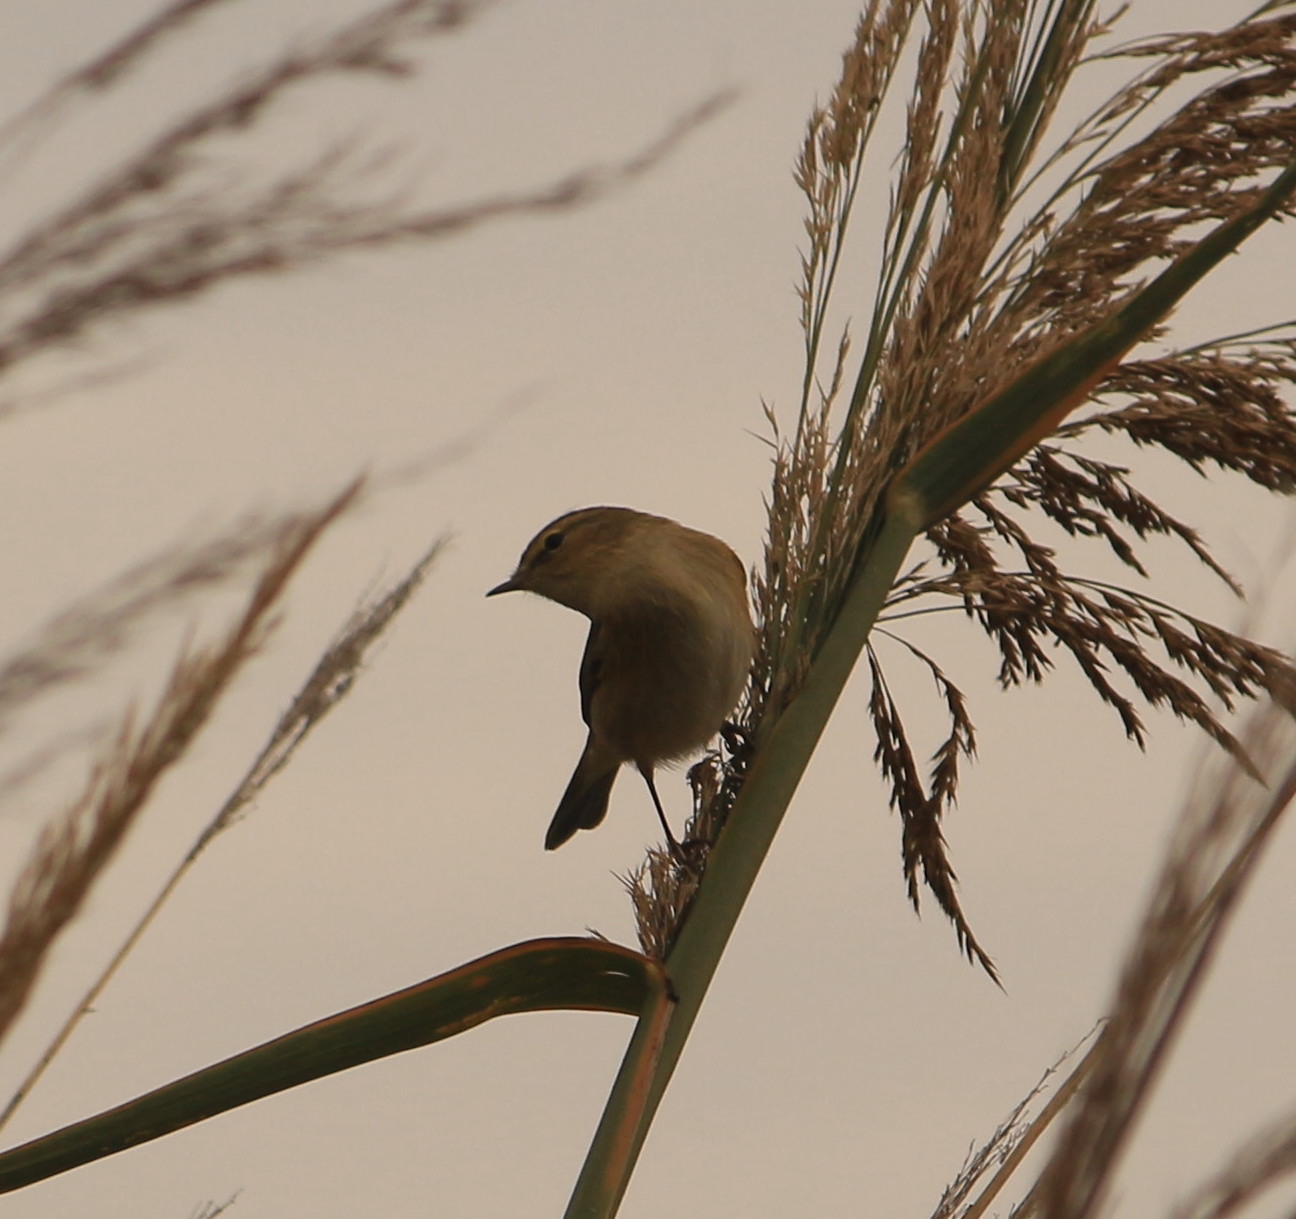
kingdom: Animalia
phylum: Chordata
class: Aves
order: Passeriformes
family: Phylloscopidae
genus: Phylloscopus
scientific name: Phylloscopus collybita
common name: Common chiffchaff
